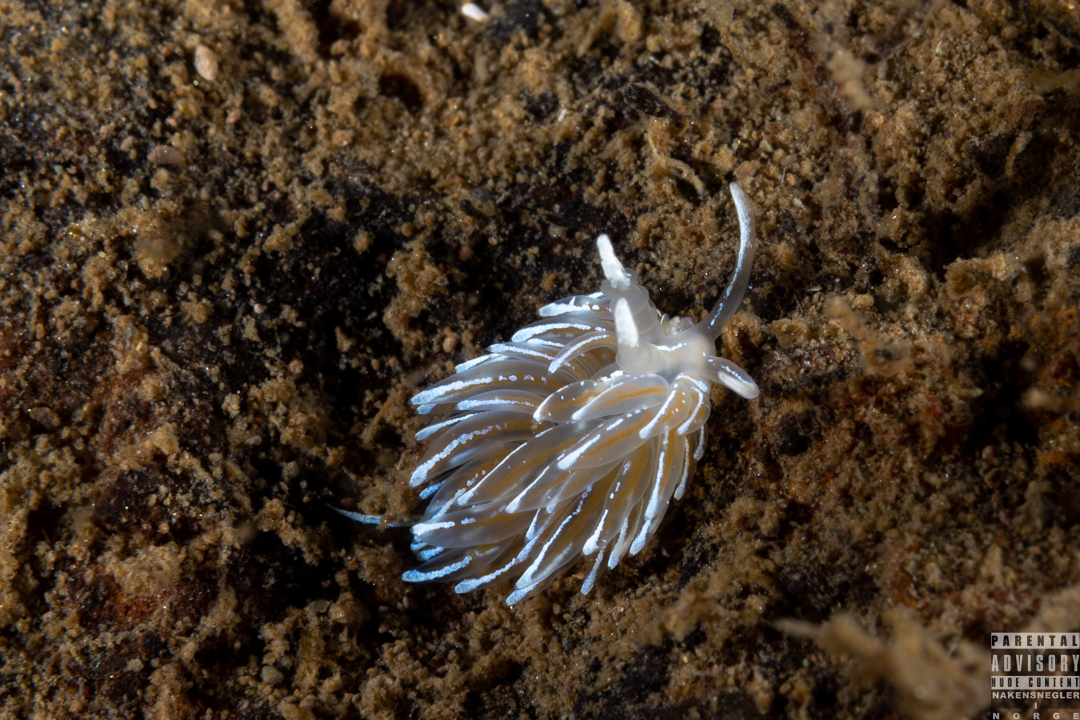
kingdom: Animalia
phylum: Mollusca
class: Gastropoda
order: Nudibranchia
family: Facelinidae
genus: Favorinus
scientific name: Favorinus blianus
